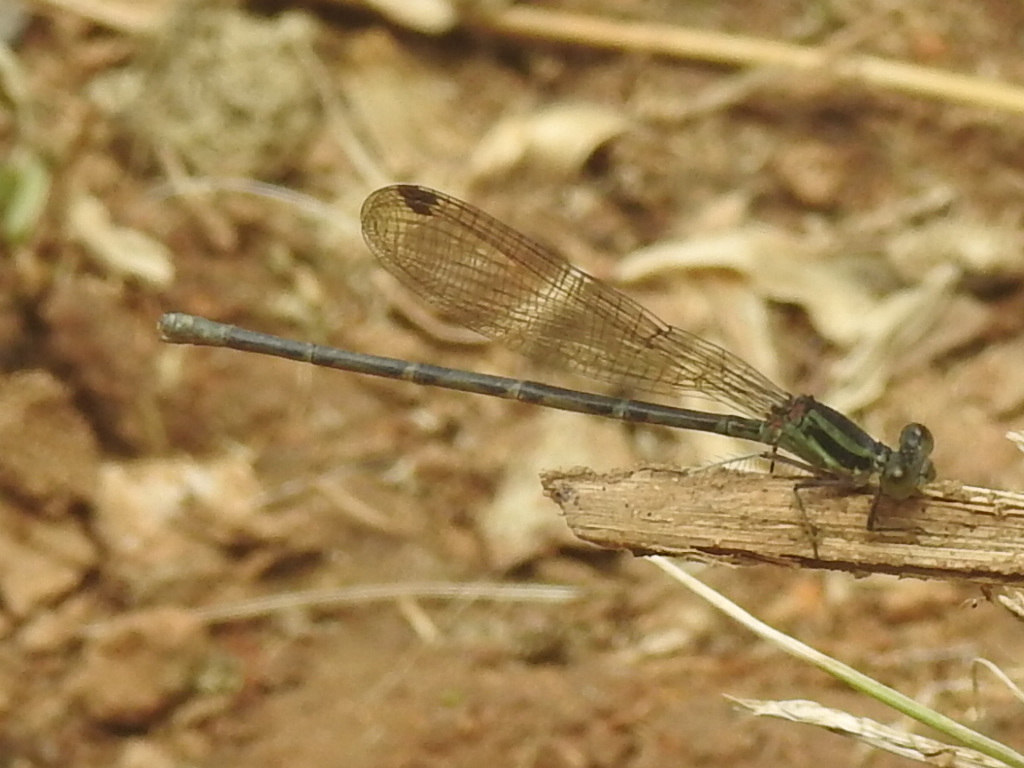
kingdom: Animalia
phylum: Arthropoda
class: Insecta
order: Odonata
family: Coenagrionidae
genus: Argia
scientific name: Argia pulla
